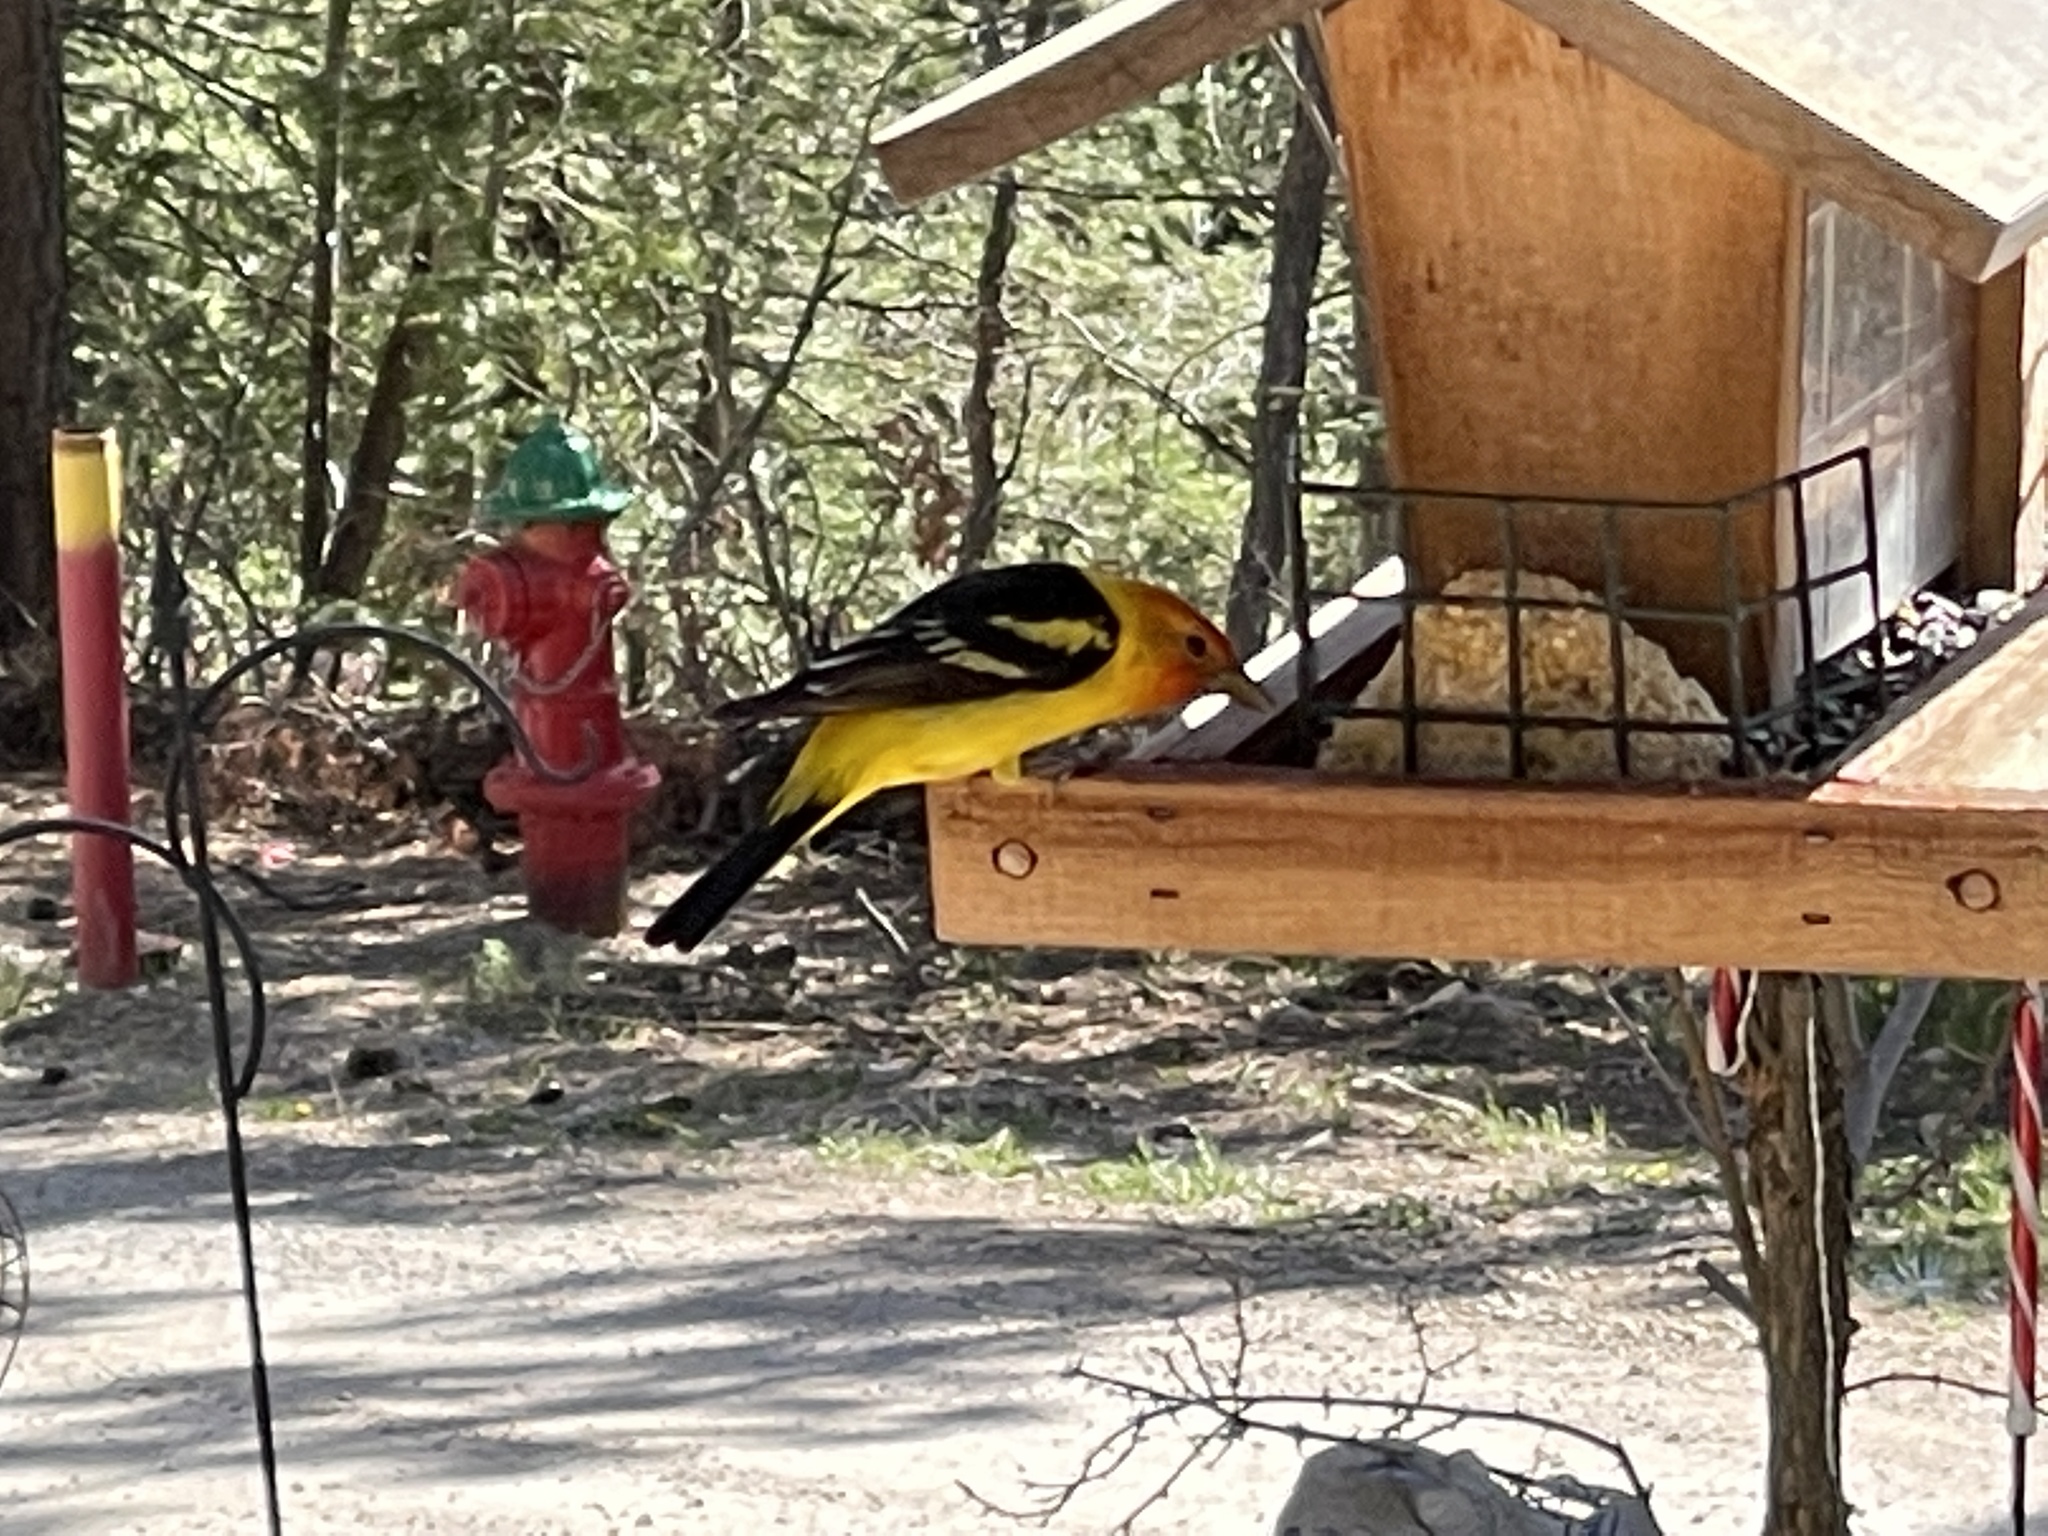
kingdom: Animalia
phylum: Chordata
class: Aves
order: Passeriformes
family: Cardinalidae
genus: Piranga
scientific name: Piranga ludoviciana
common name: Western tanager
